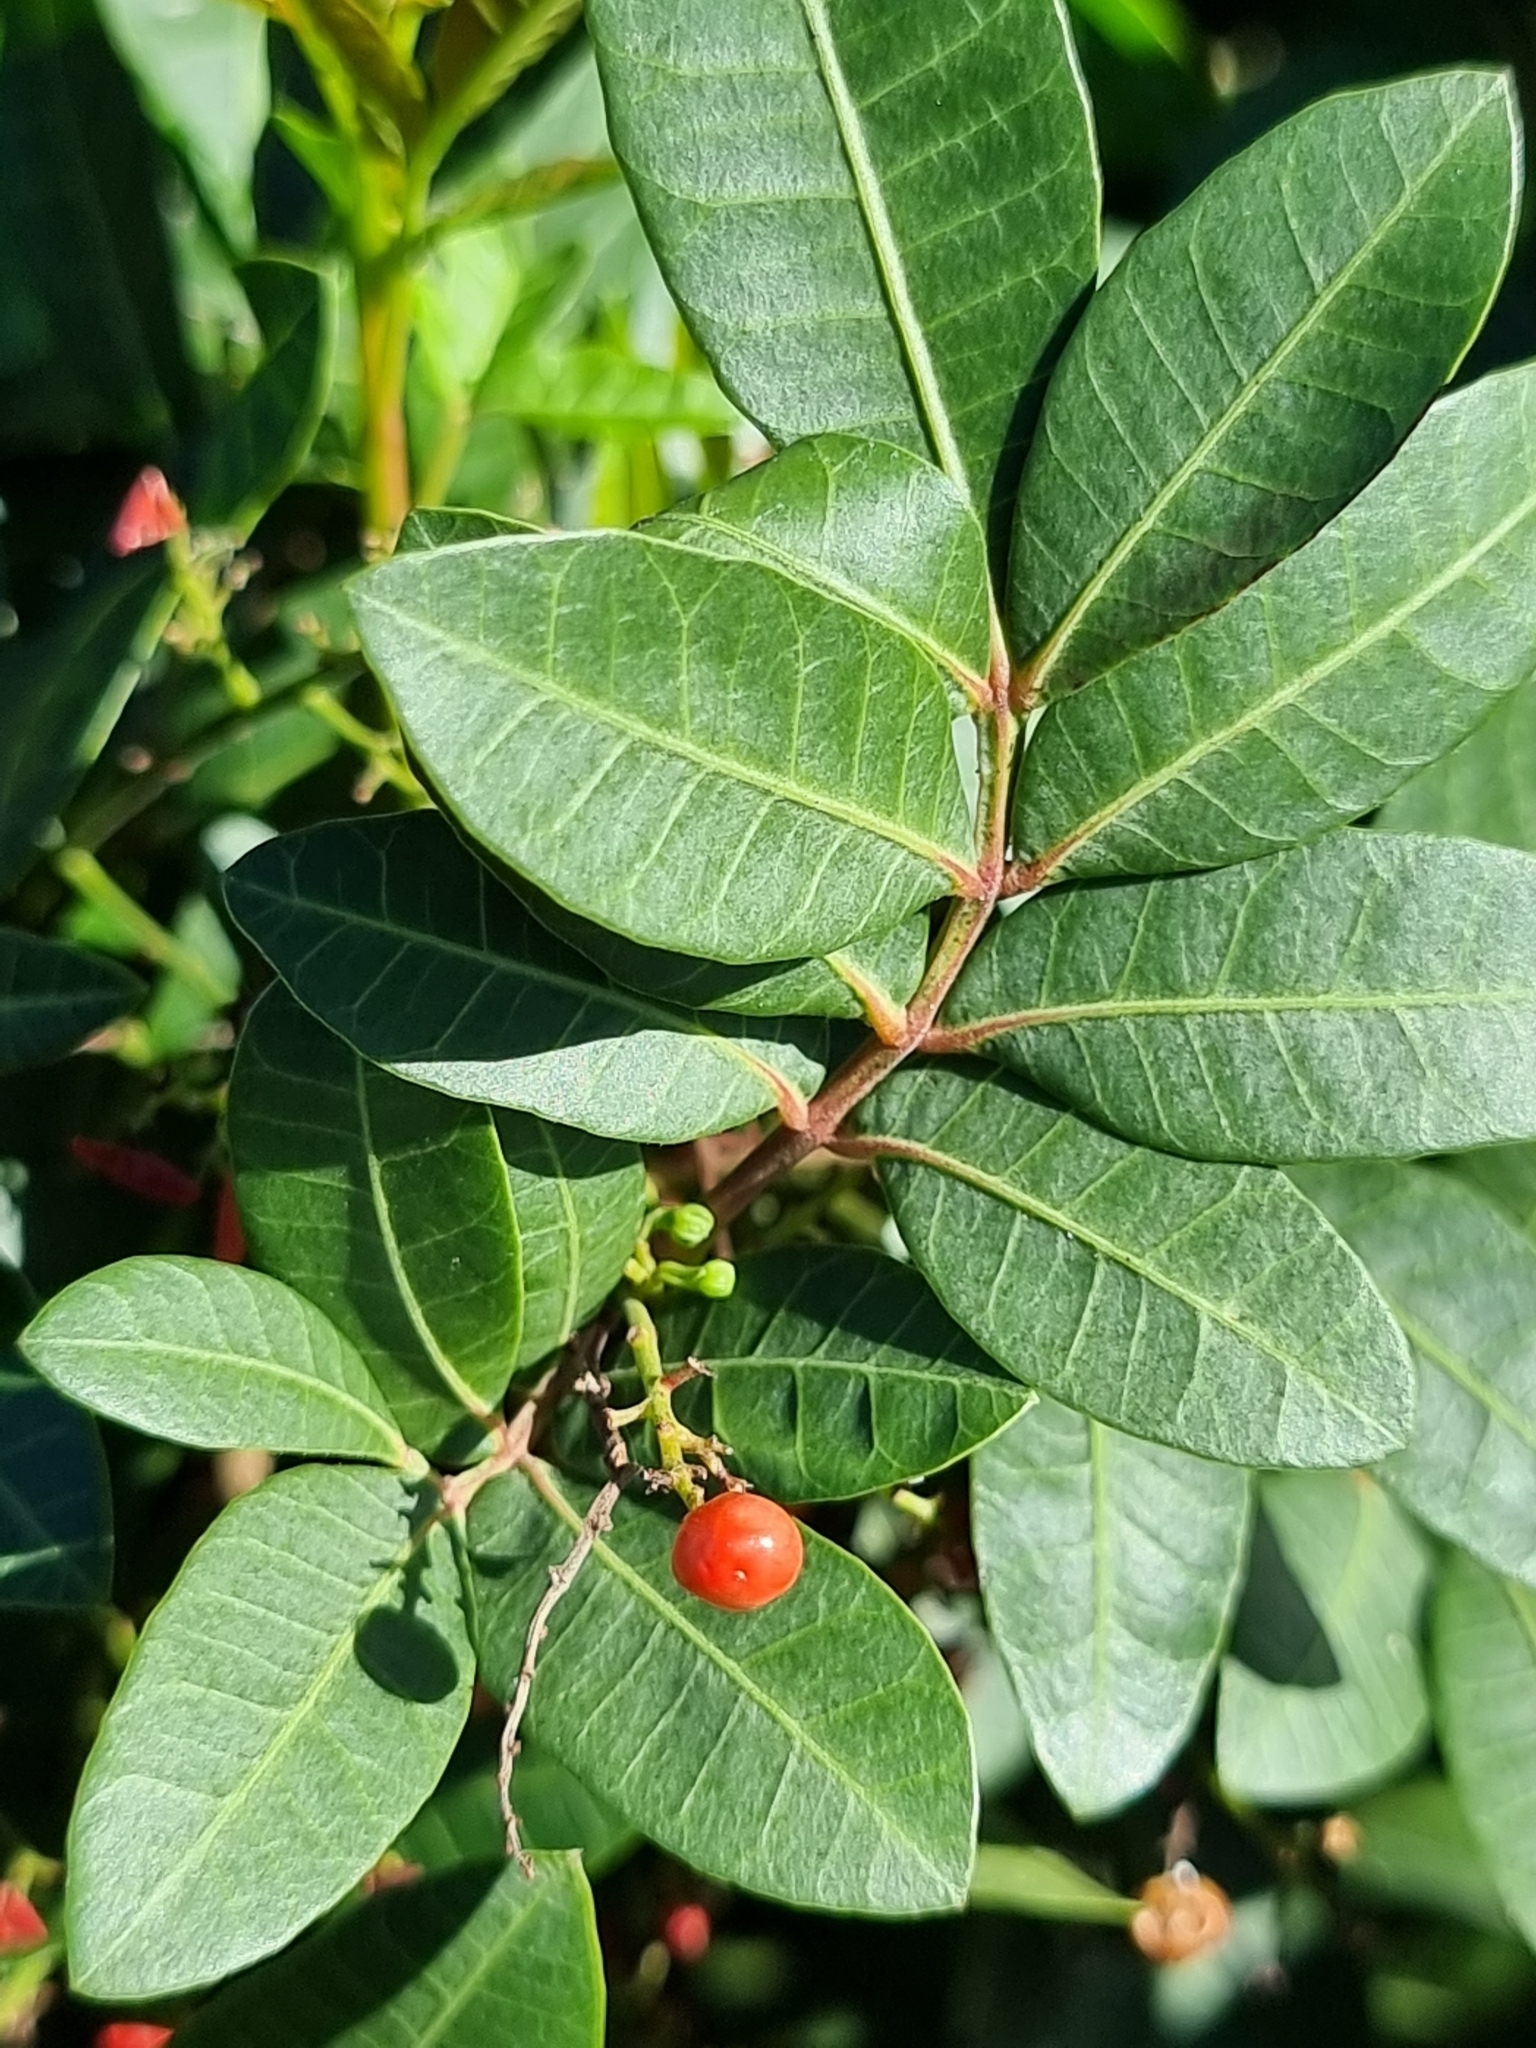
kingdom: Plantae
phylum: Tracheophyta
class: Magnoliopsida
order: Sapindales
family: Anacardiaceae
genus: Schinus
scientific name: Schinus terebinthifolia
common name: Brazilian peppertree
